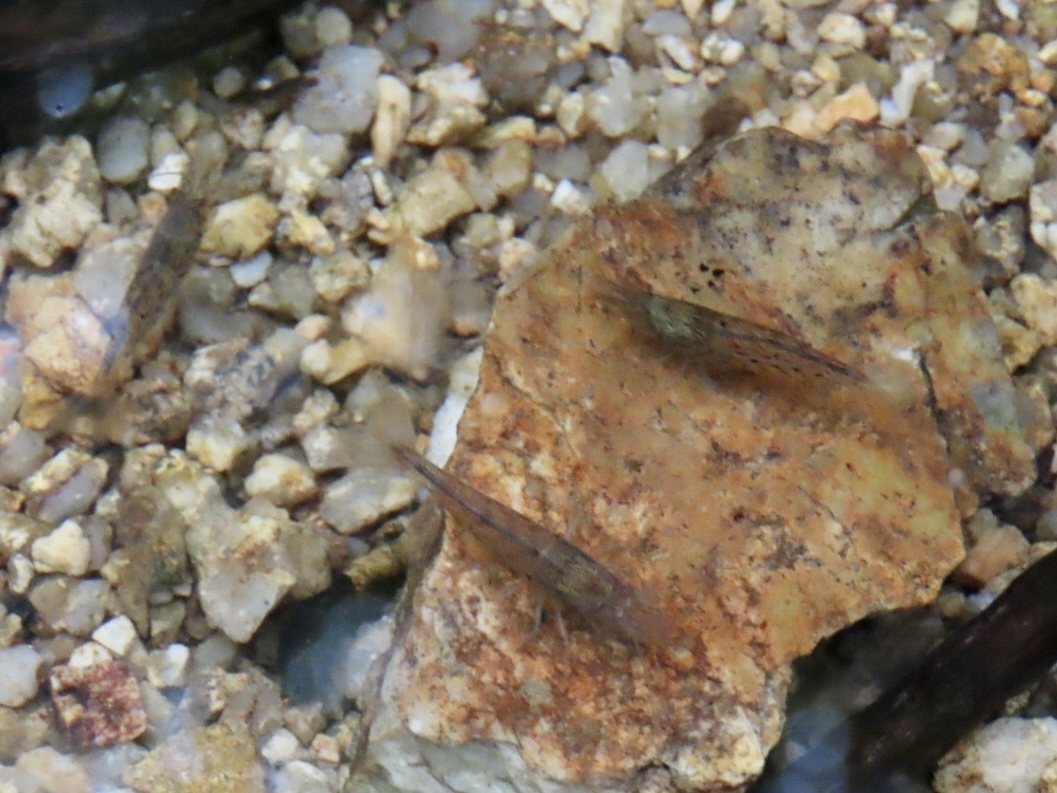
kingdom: Animalia
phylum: Arthropoda
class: Malacostraca
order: Decapoda
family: Atyidae
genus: Caridina
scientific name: Caridina cantonensis
